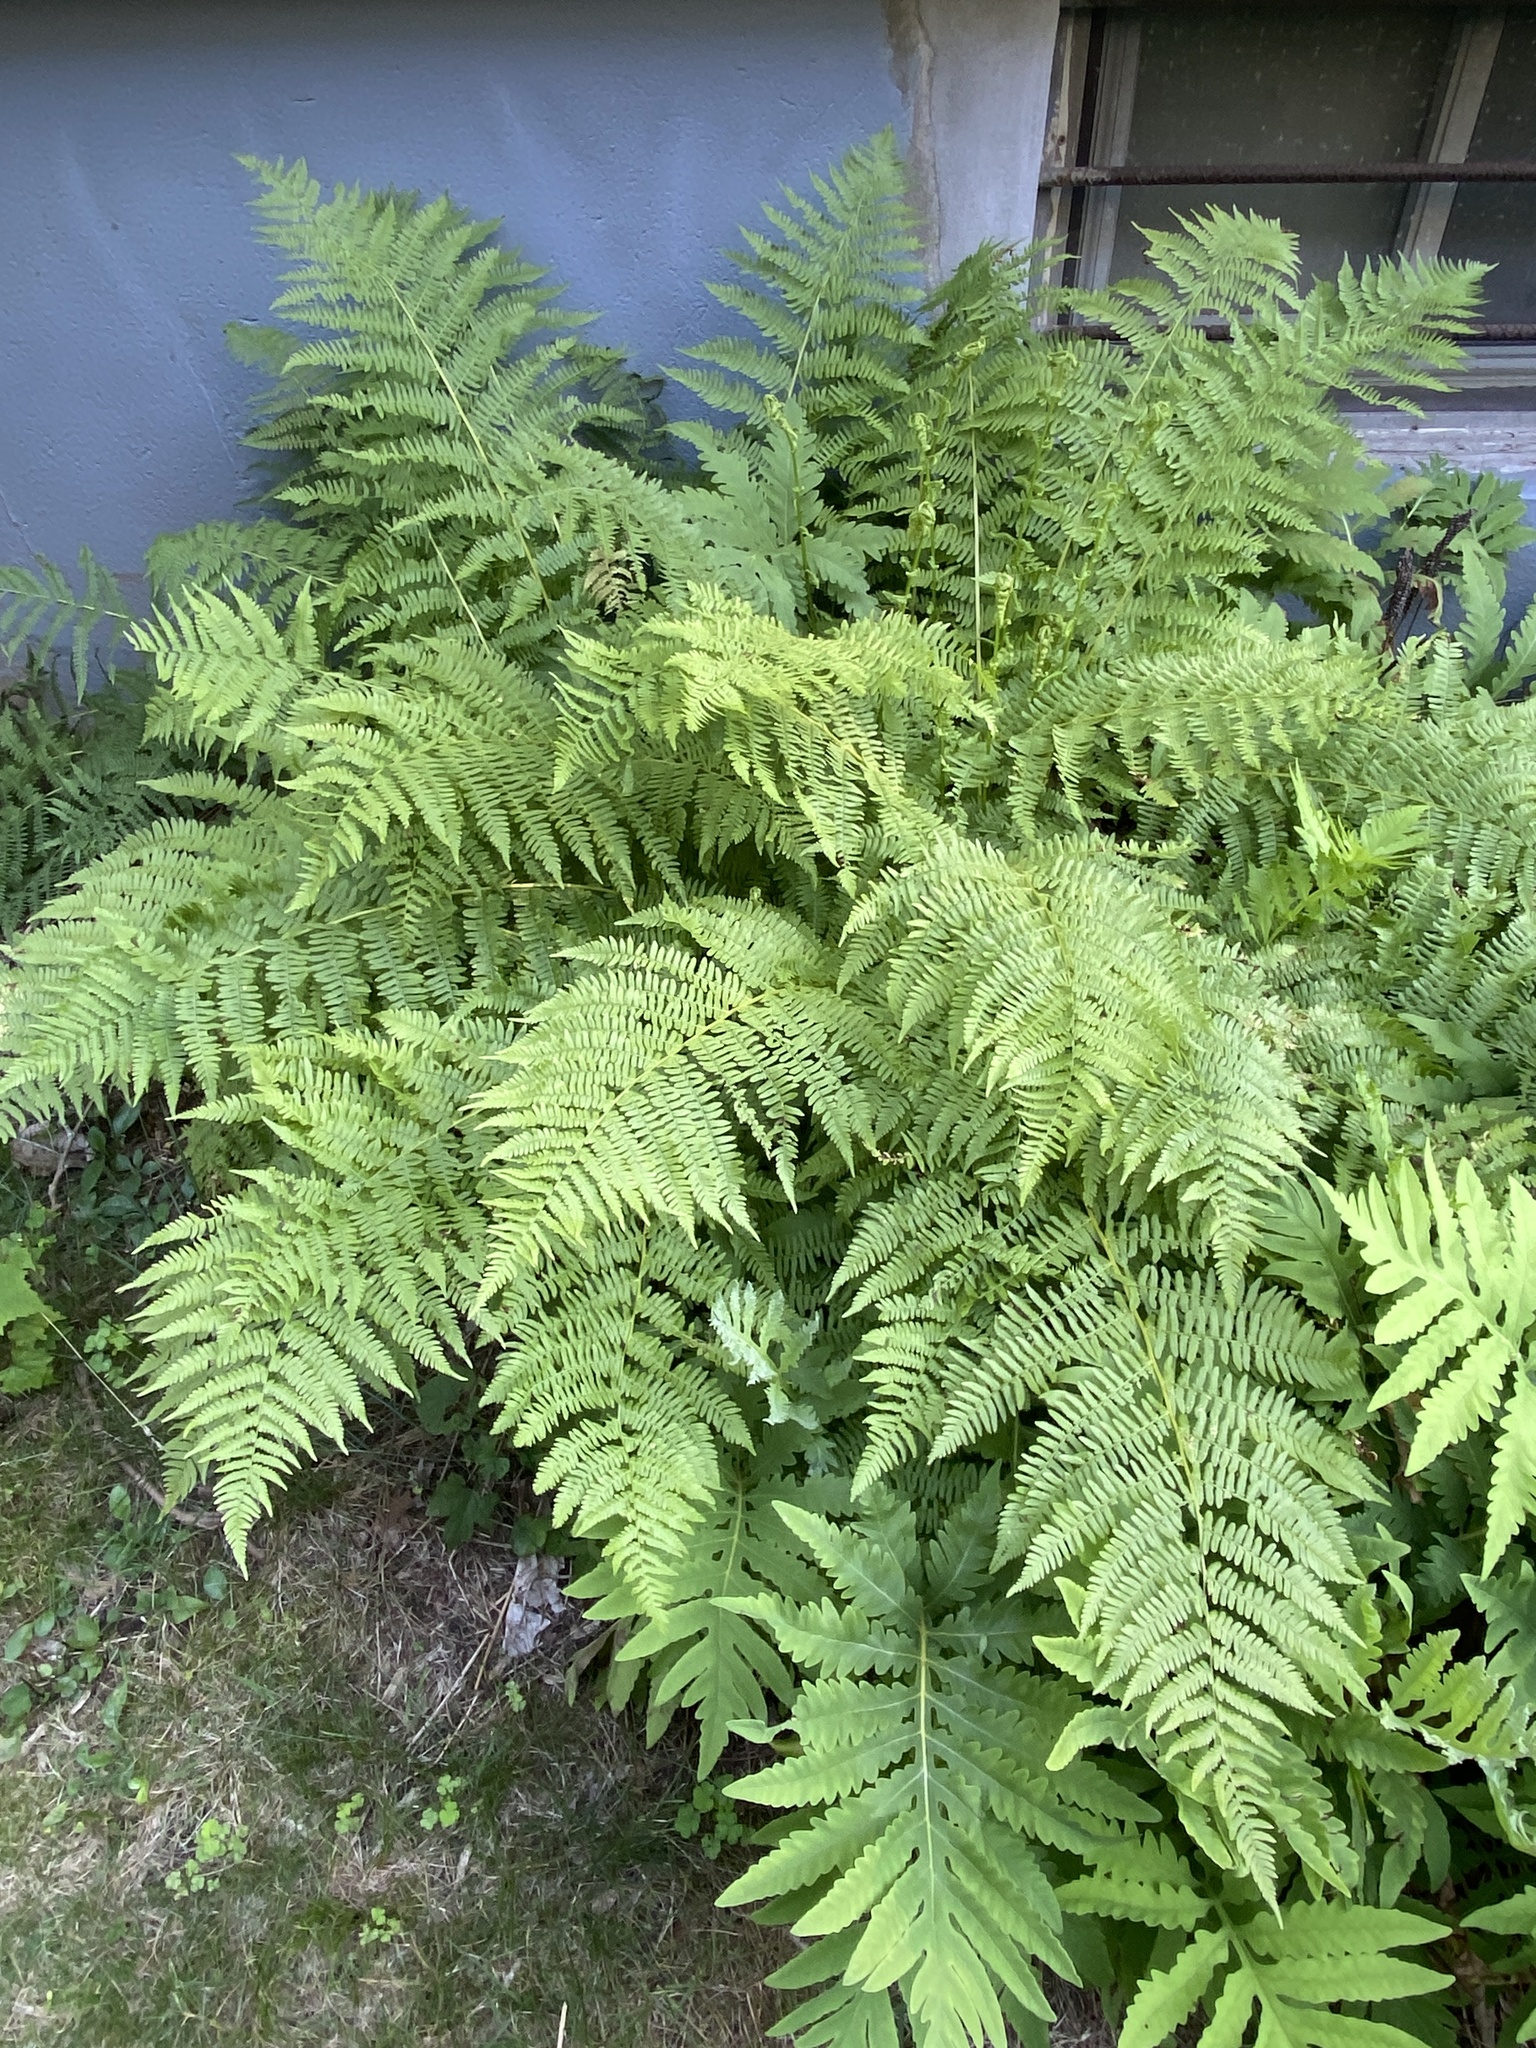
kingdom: Plantae
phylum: Tracheophyta
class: Polypodiopsida
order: Polypodiales
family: Athyriaceae
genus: Athyrium
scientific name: Athyrium angustum
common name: Northern lady fern
